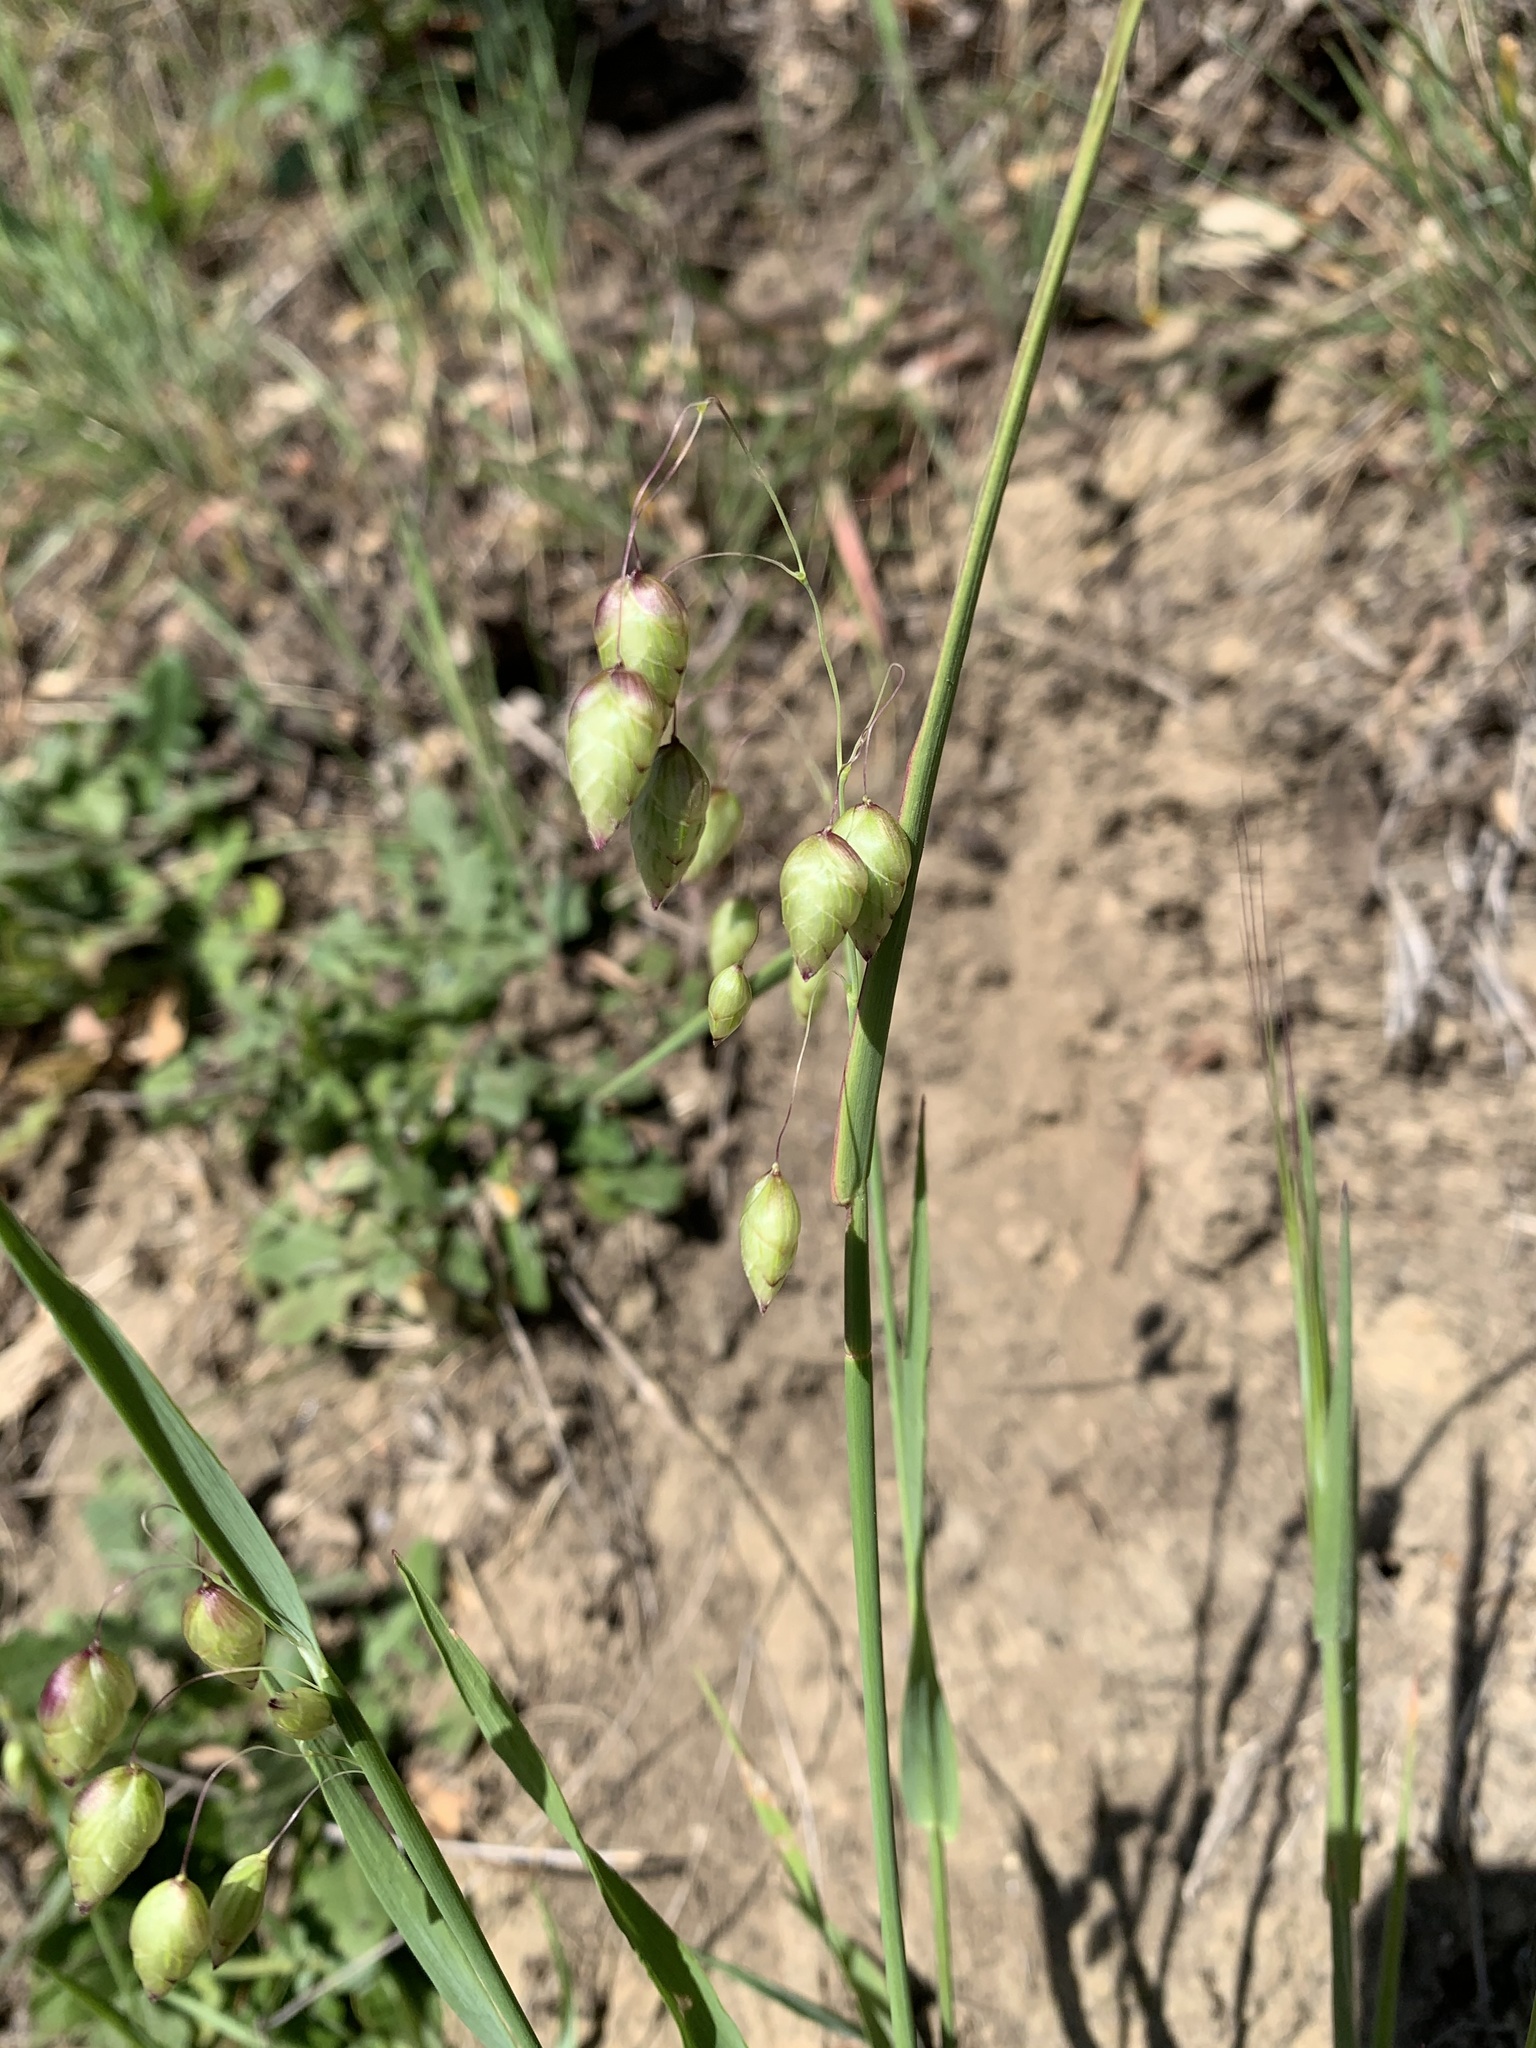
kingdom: Plantae
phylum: Tracheophyta
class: Liliopsida
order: Poales
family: Poaceae
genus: Briza
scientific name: Briza maxima
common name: Big quakinggrass
